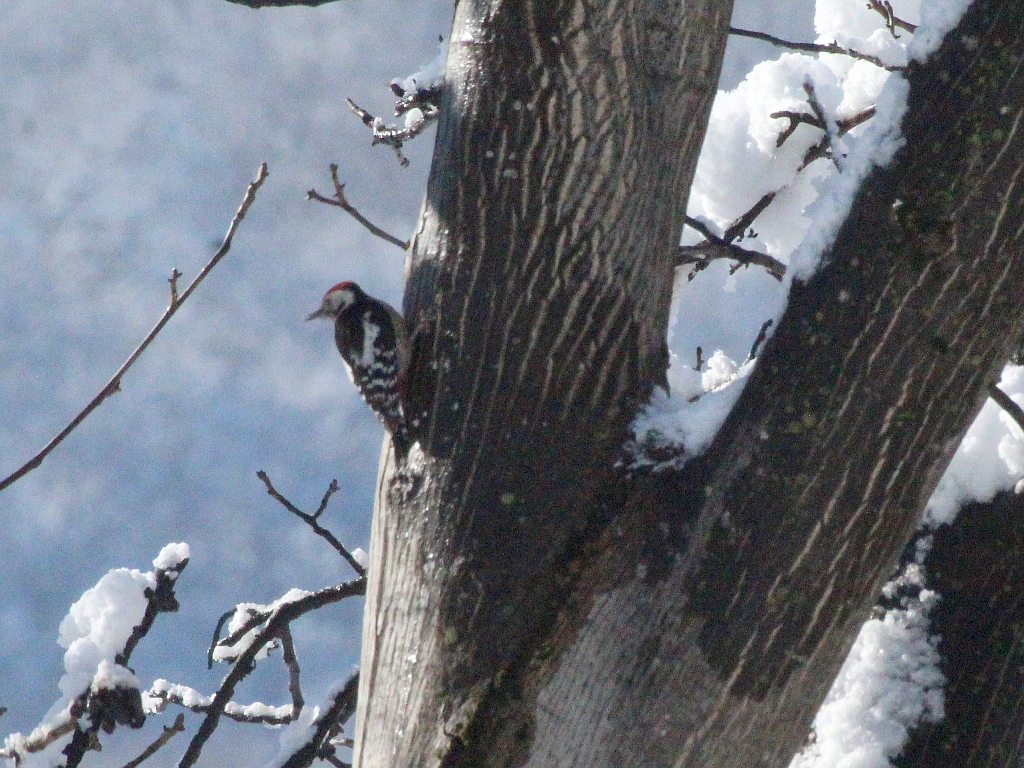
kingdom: Animalia
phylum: Chordata
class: Aves
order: Piciformes
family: Picidae
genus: Dendrocoptes
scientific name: Dendrocoptes medius
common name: Middle spotted woodpecker
